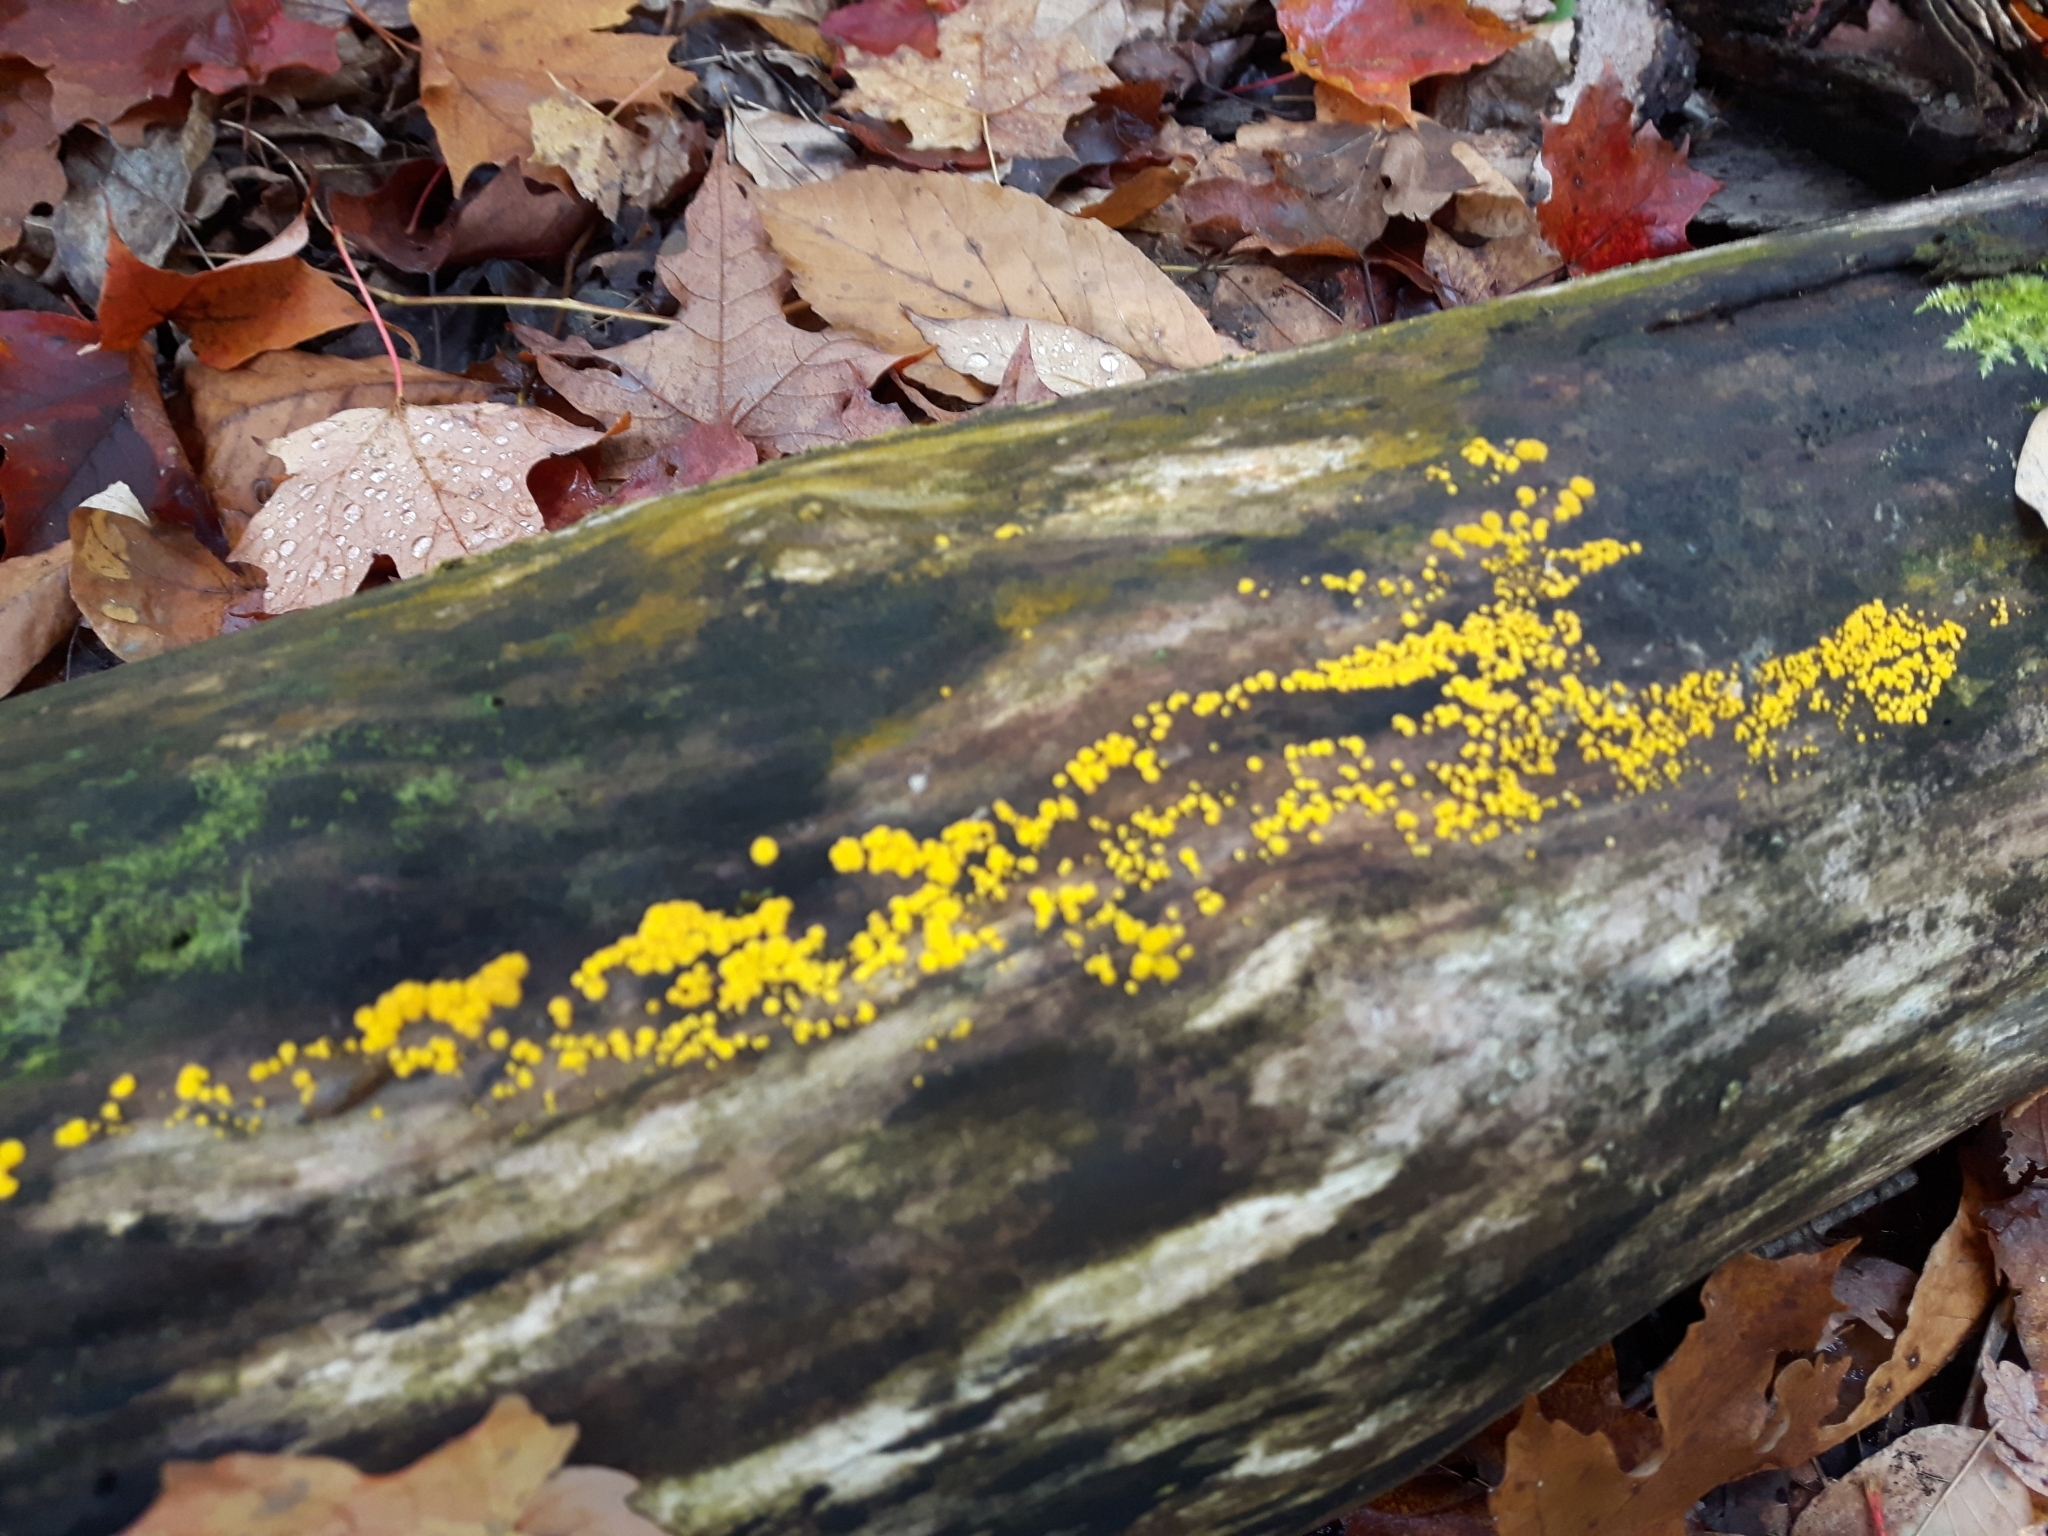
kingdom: Fungi
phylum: Ascomycota
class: Leotiomycetes
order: Helotiales
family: Pezizellaceae
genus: Calycina
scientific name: Calycina citrina
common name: Yellow fairy cups
